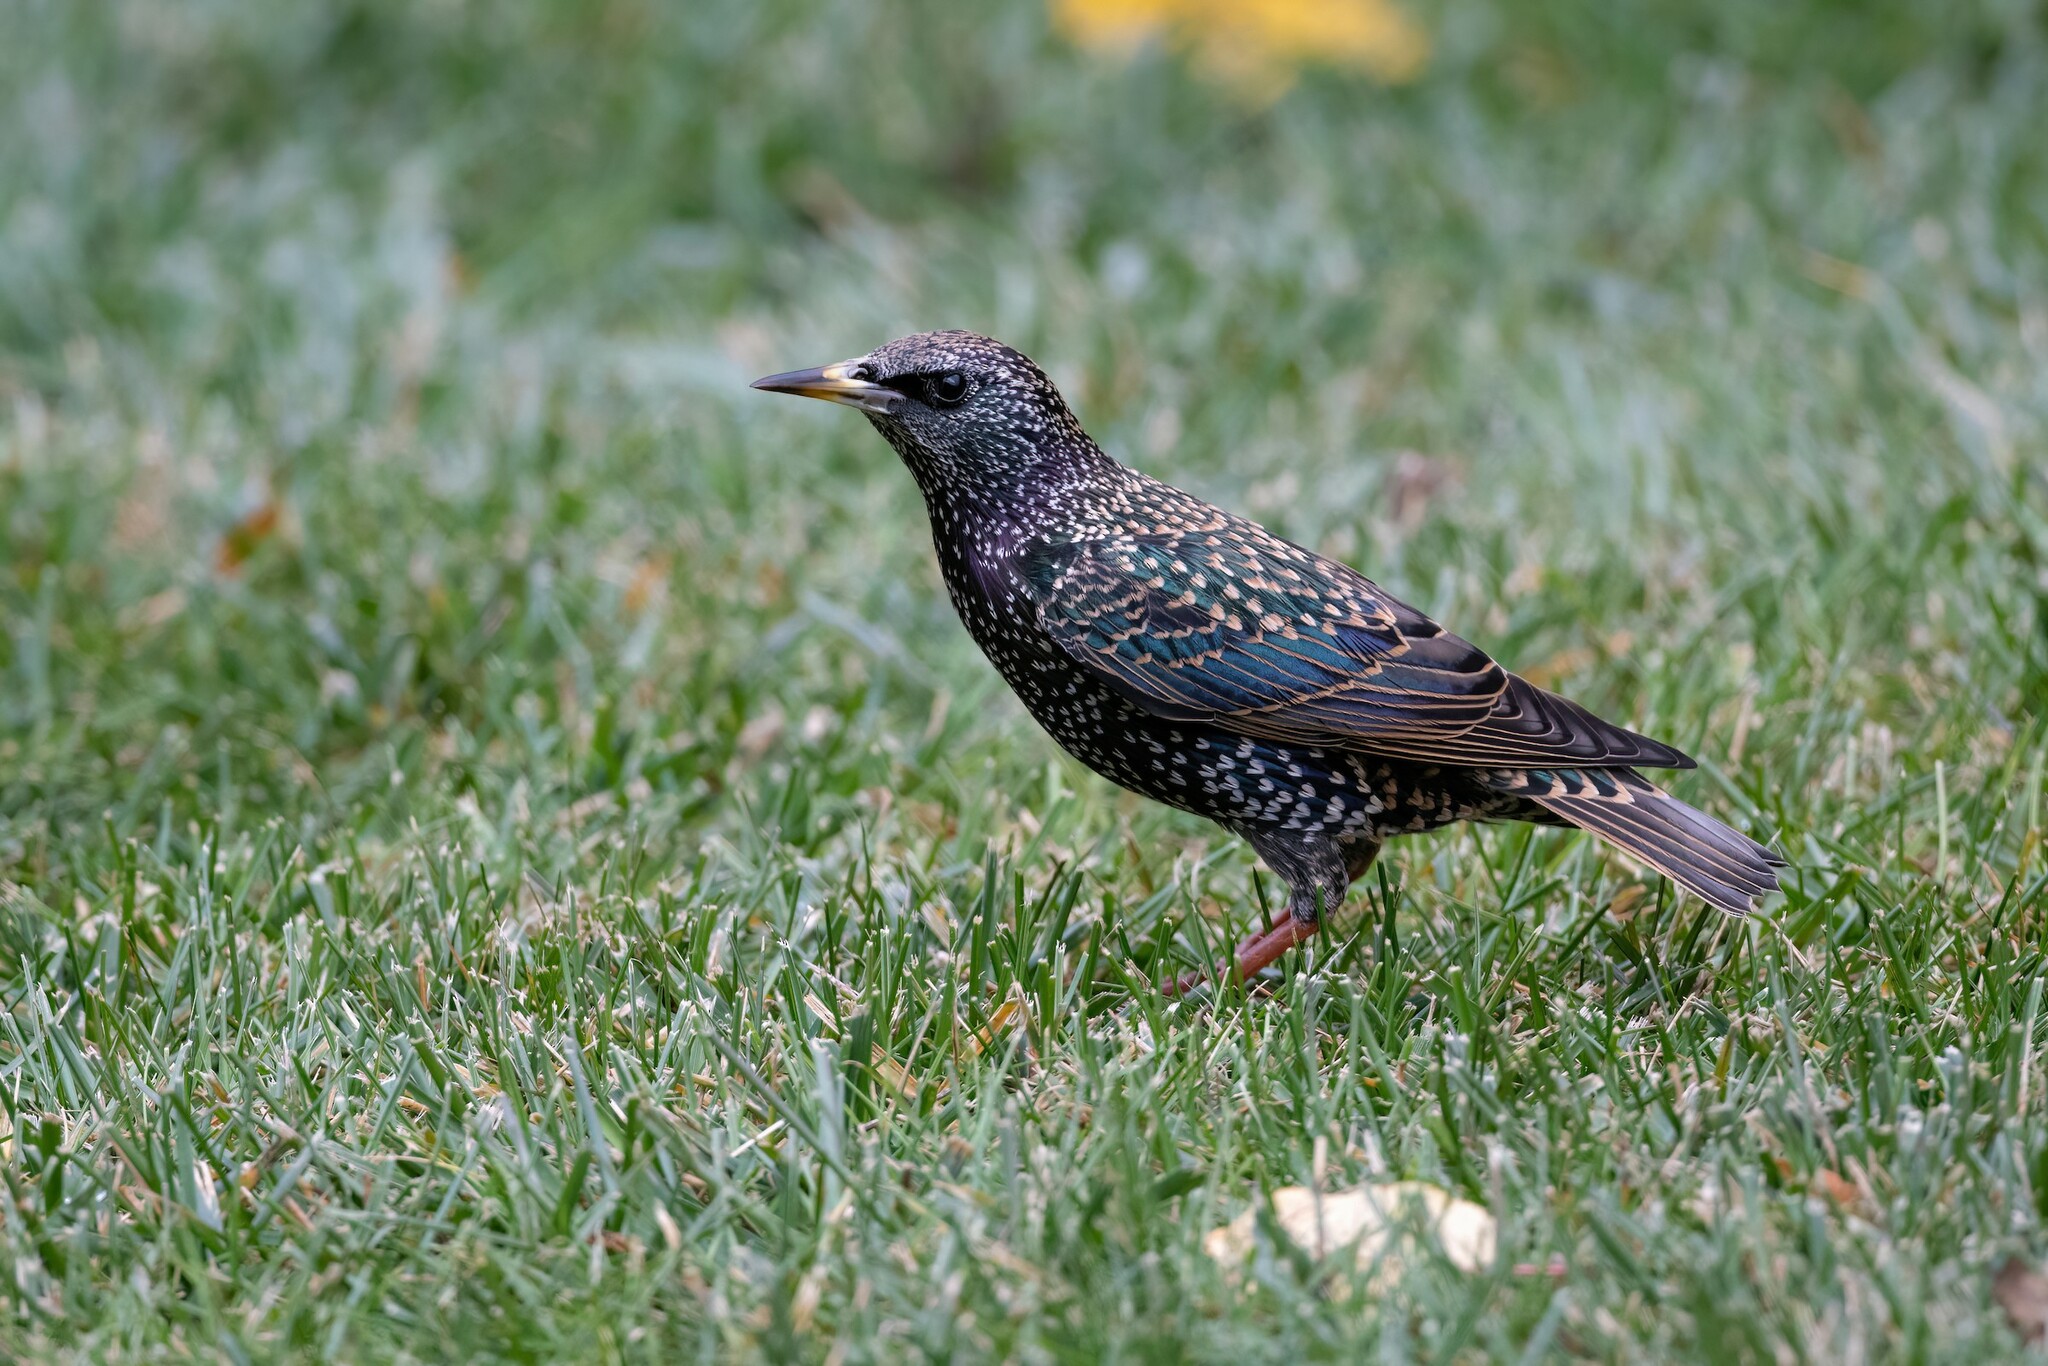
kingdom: Animalia
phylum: Chordata
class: Aves
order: Passeriformes
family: Sturnidae
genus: Sturnus
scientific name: Sturnus vulgaris
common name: Common starling
